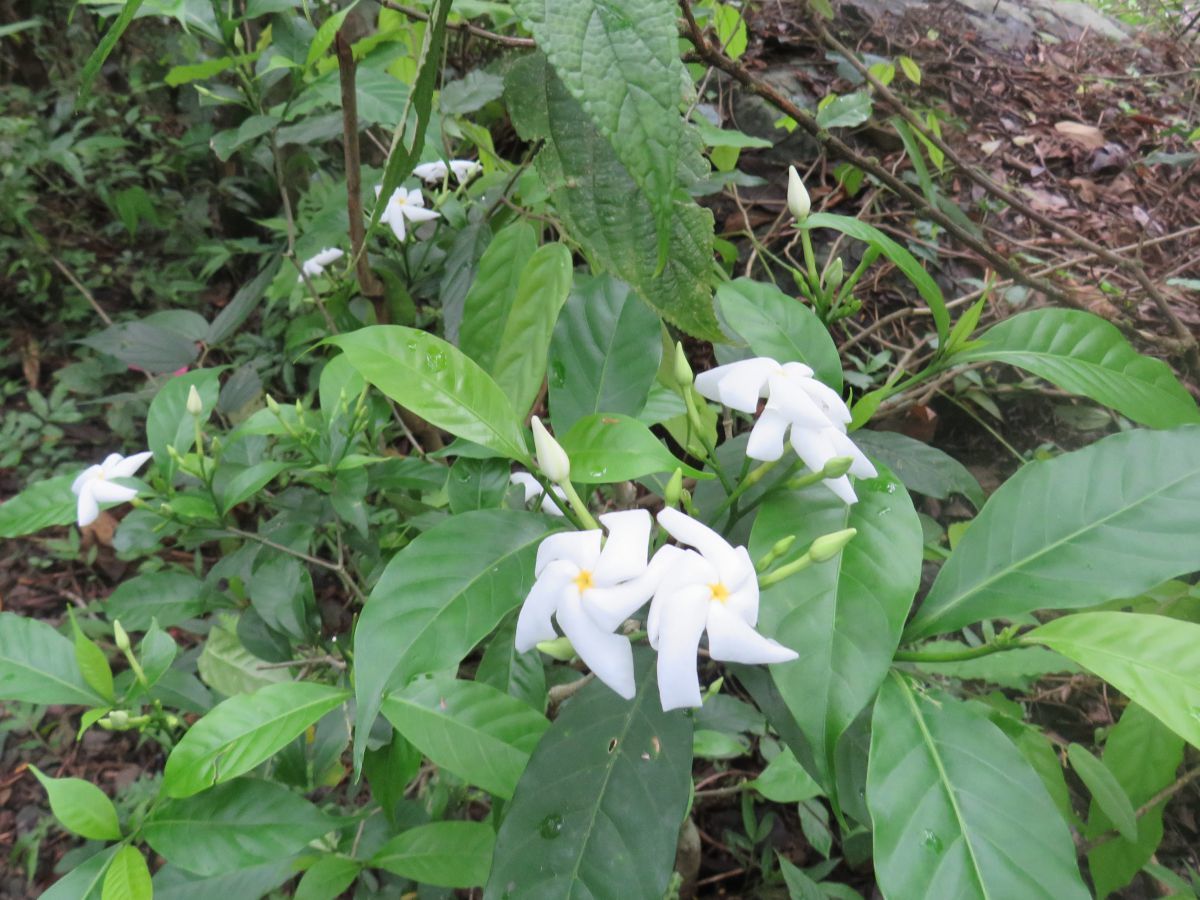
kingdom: Plantae
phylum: Tracheophyta
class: Magnoliopsida
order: Gentianales
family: Apocynaceae
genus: Tabernaemontana
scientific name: Tabernaemontana divaricata
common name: Pinwheelflower
